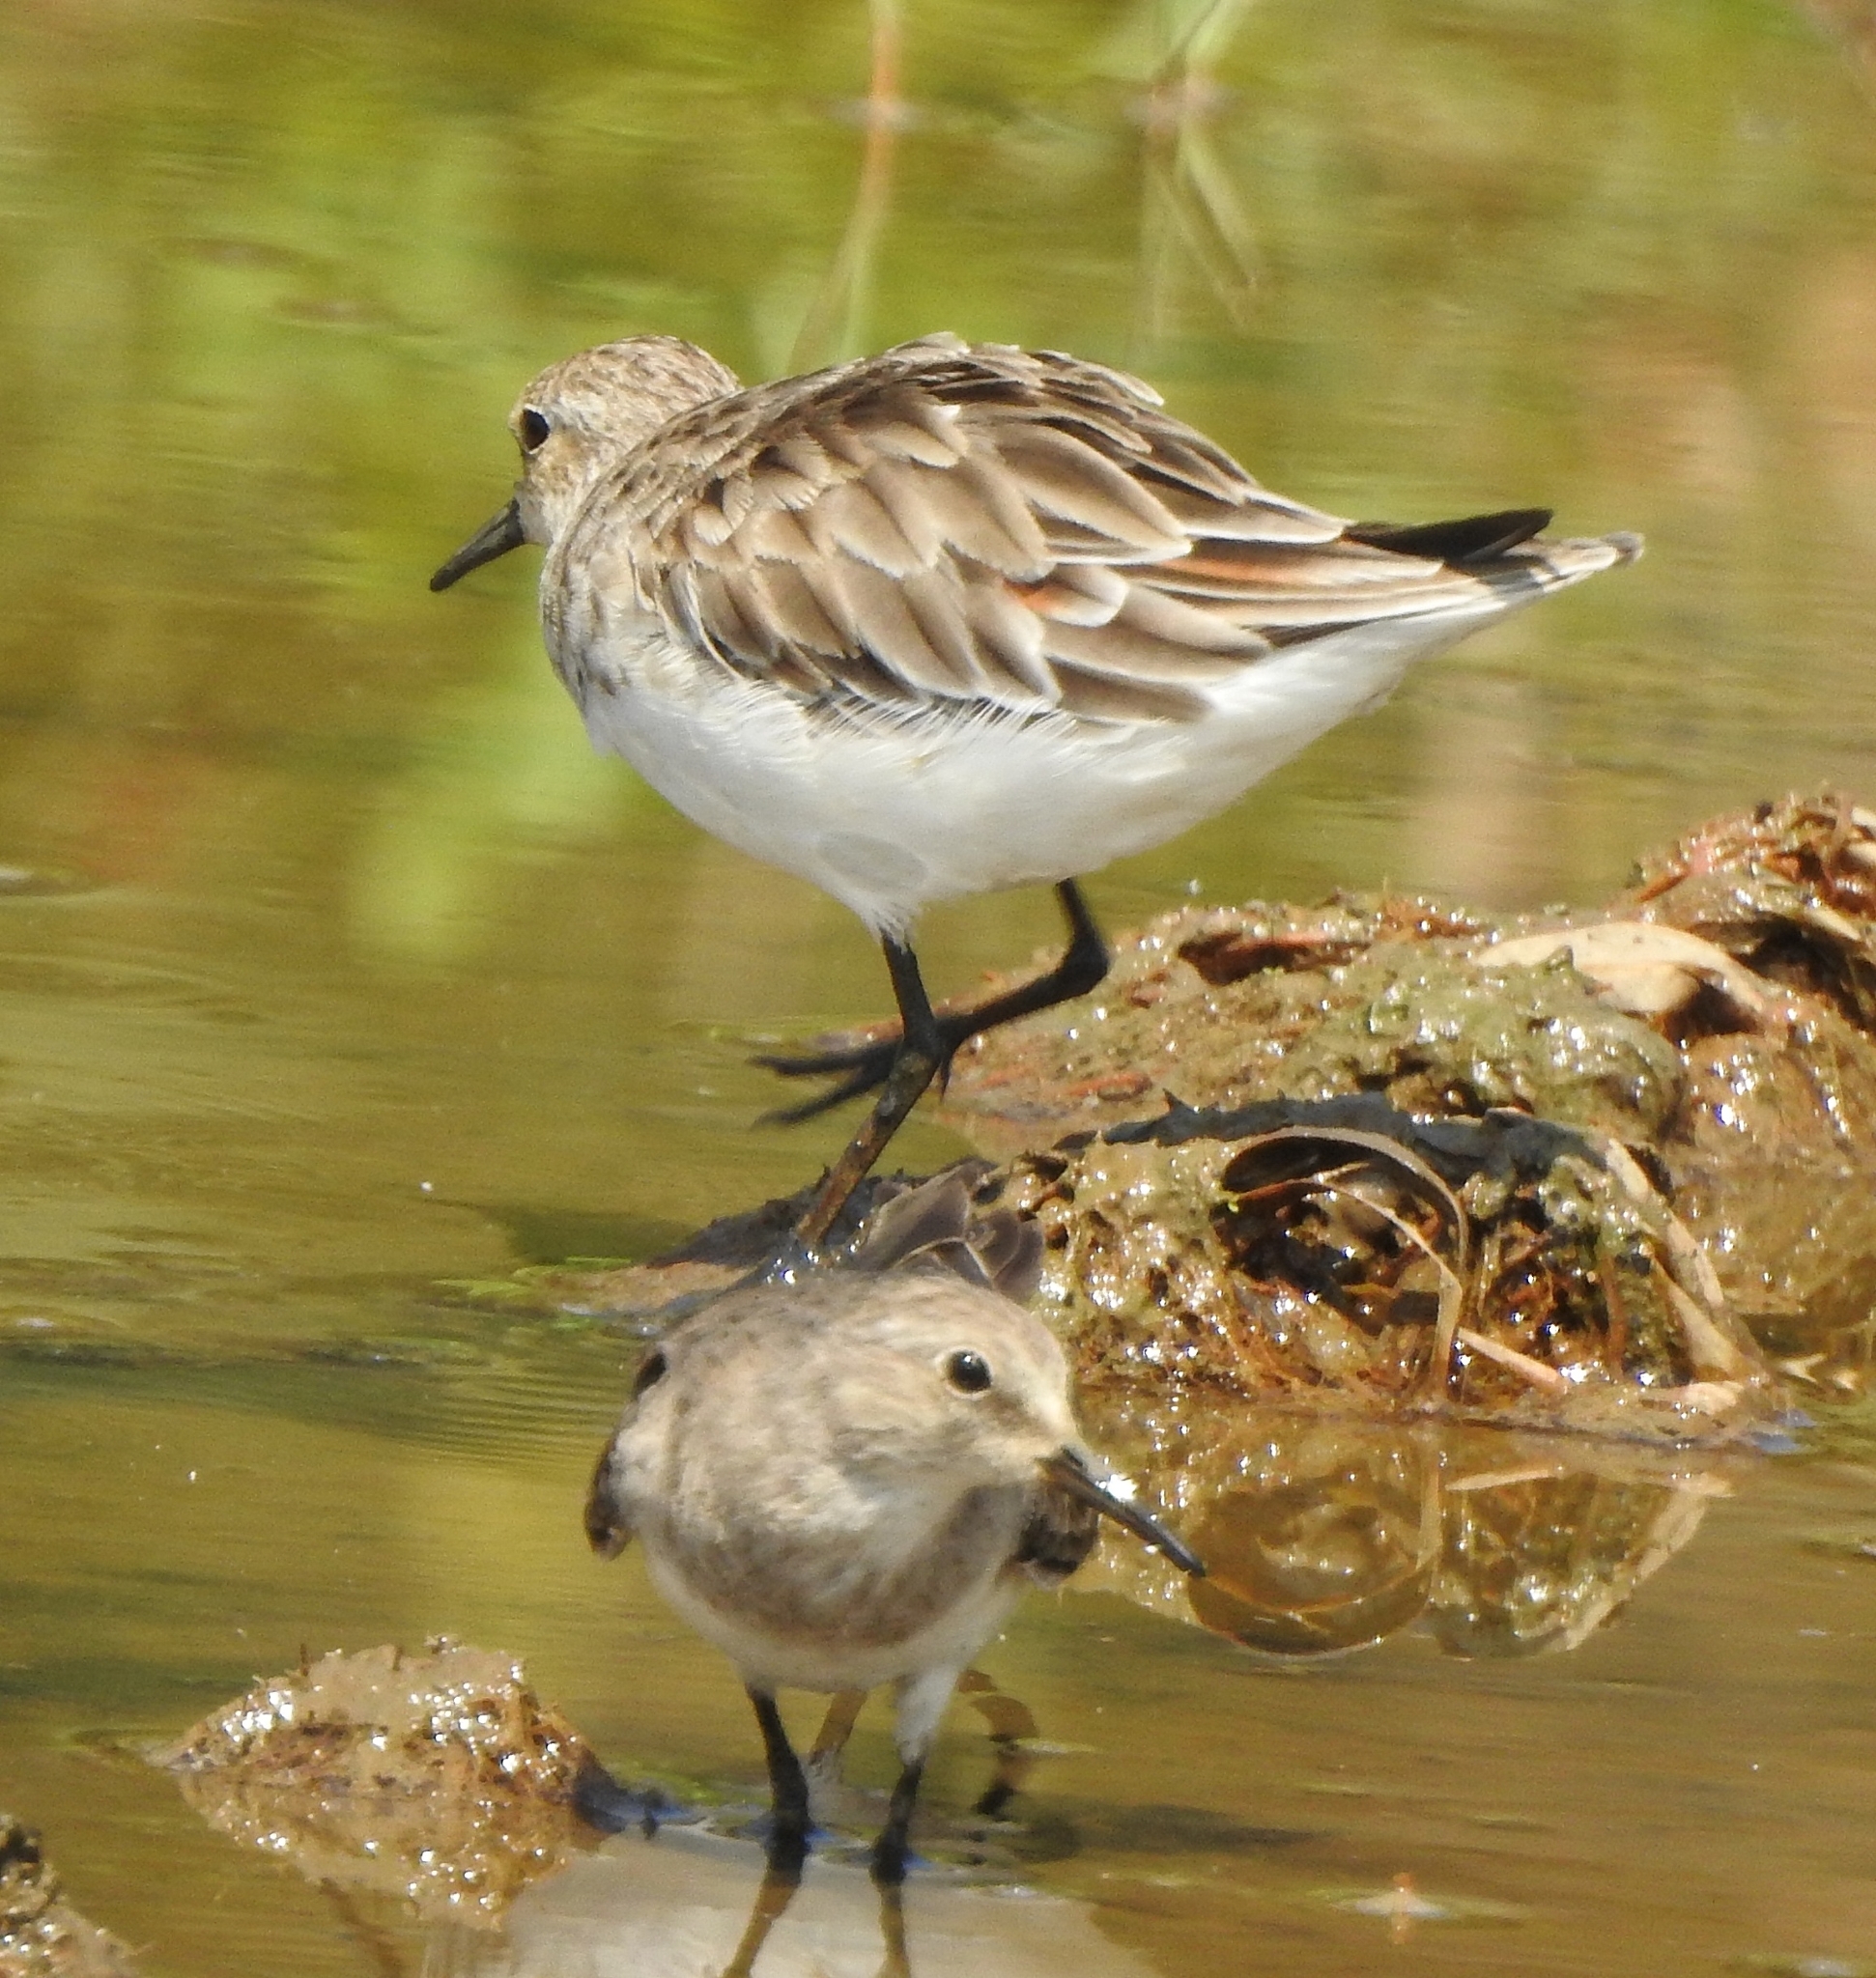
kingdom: Animalia
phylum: Chordata
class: Aves
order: Charadriiformes
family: Scolopacidae
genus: Calidris
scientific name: Calidris minuta
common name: Little stint
